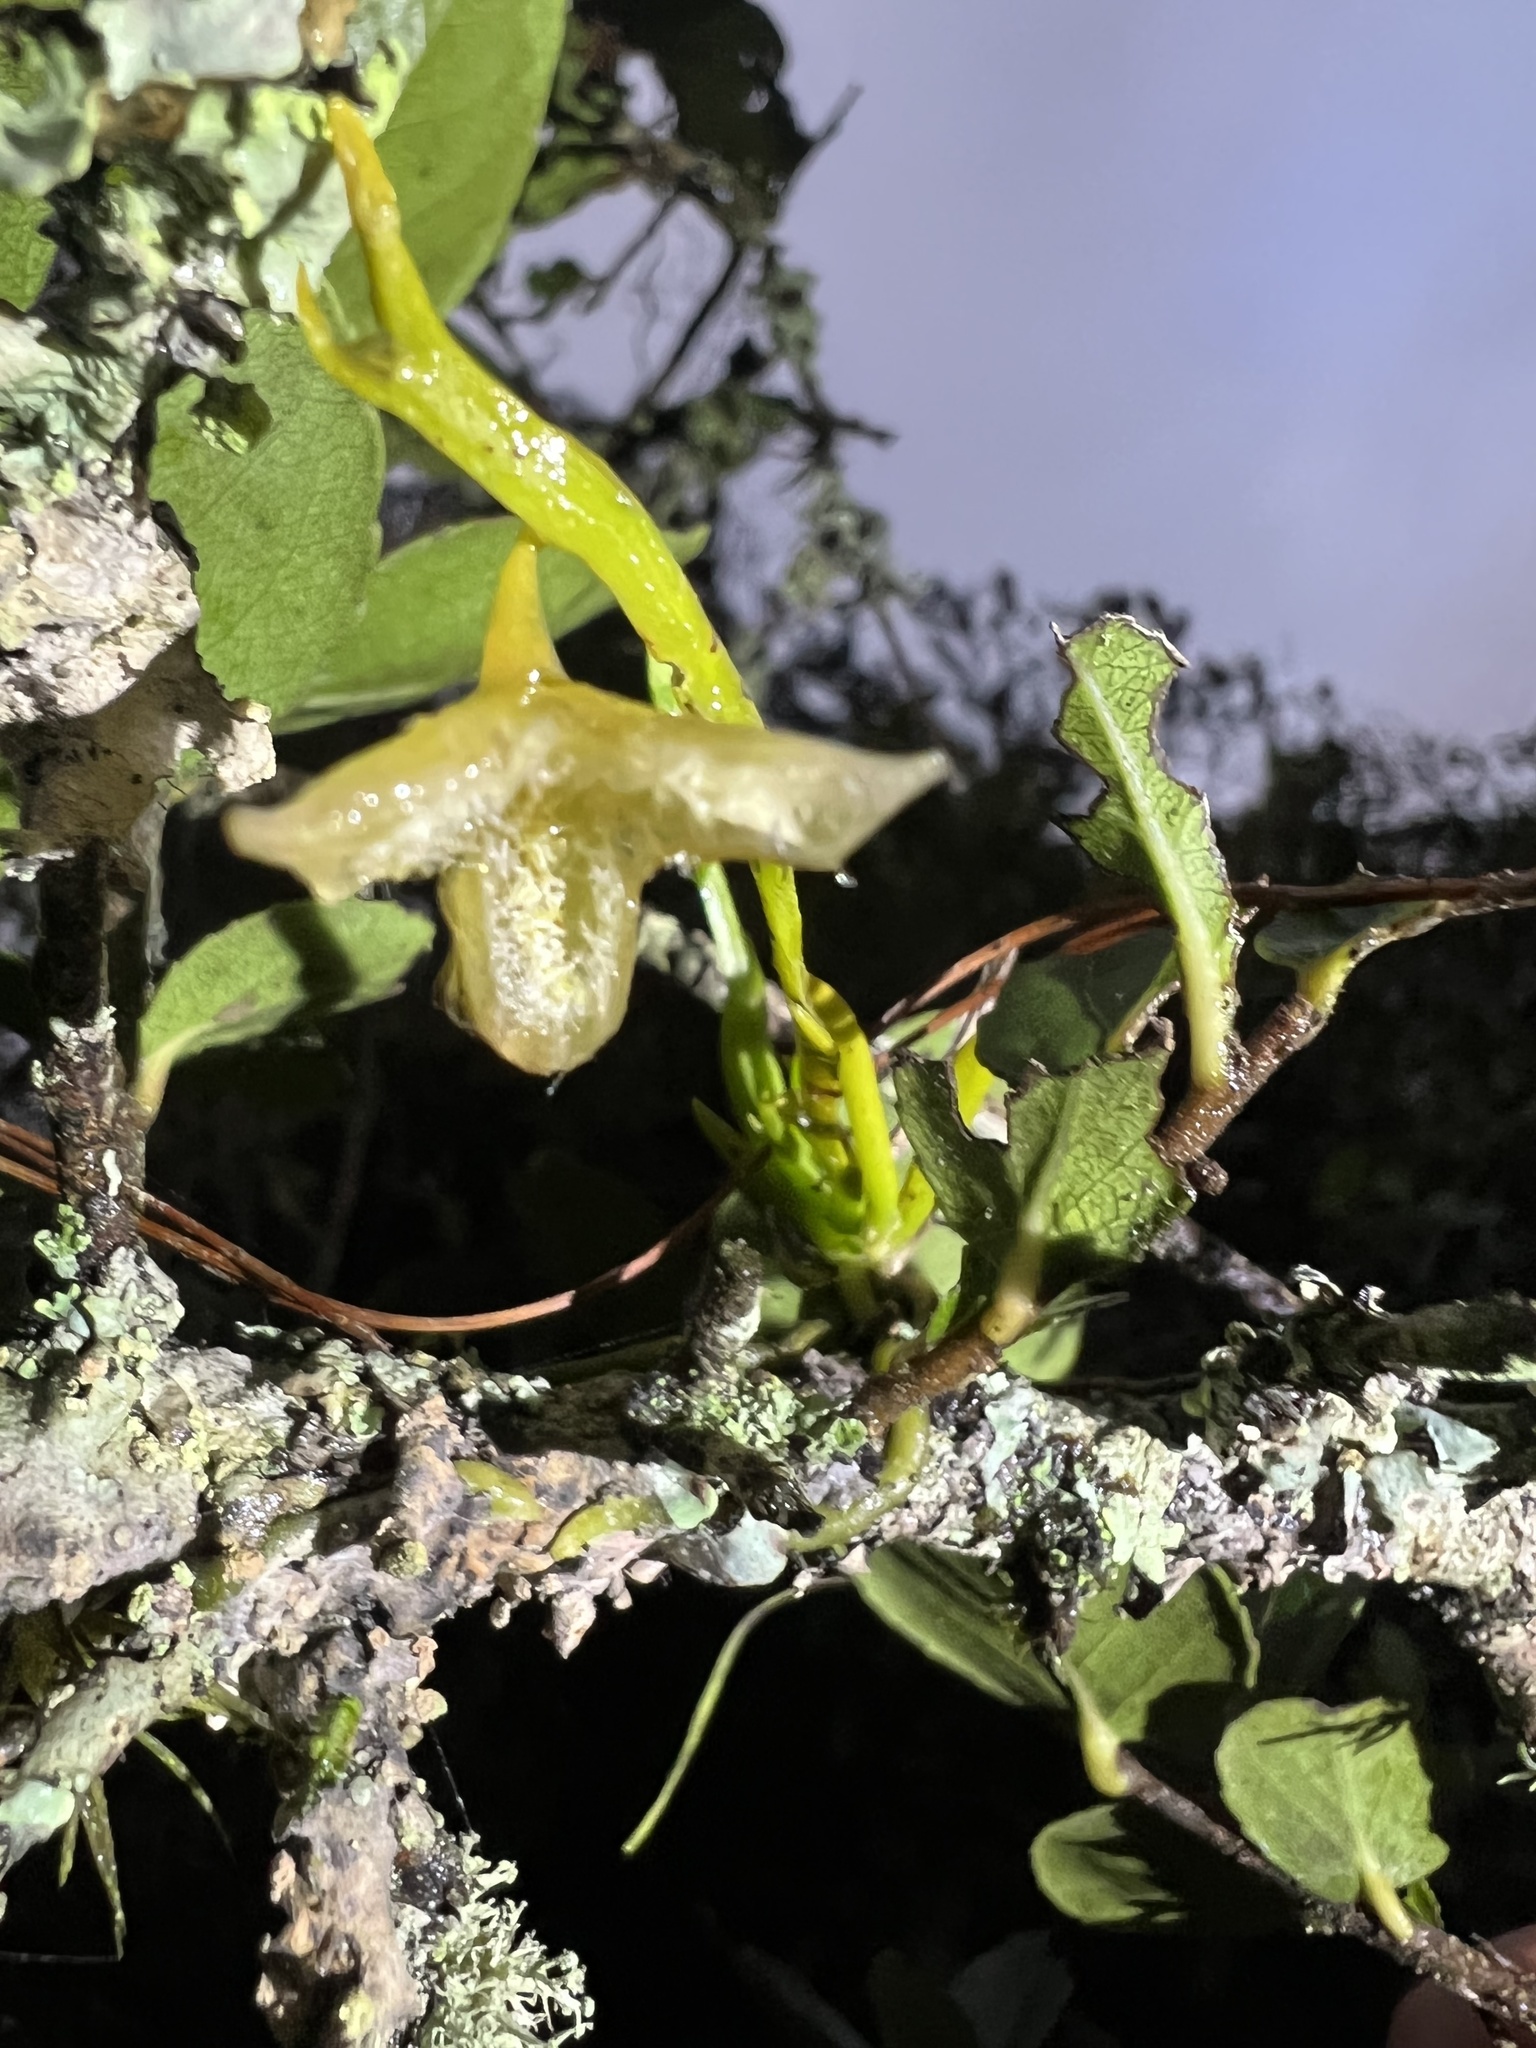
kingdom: Plantae
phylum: Tracheophyta
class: Liliopsida
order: Asparagales
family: Orchidaceae
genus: Hofmeisterella
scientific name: Hofmeisterella eumicroscopica
